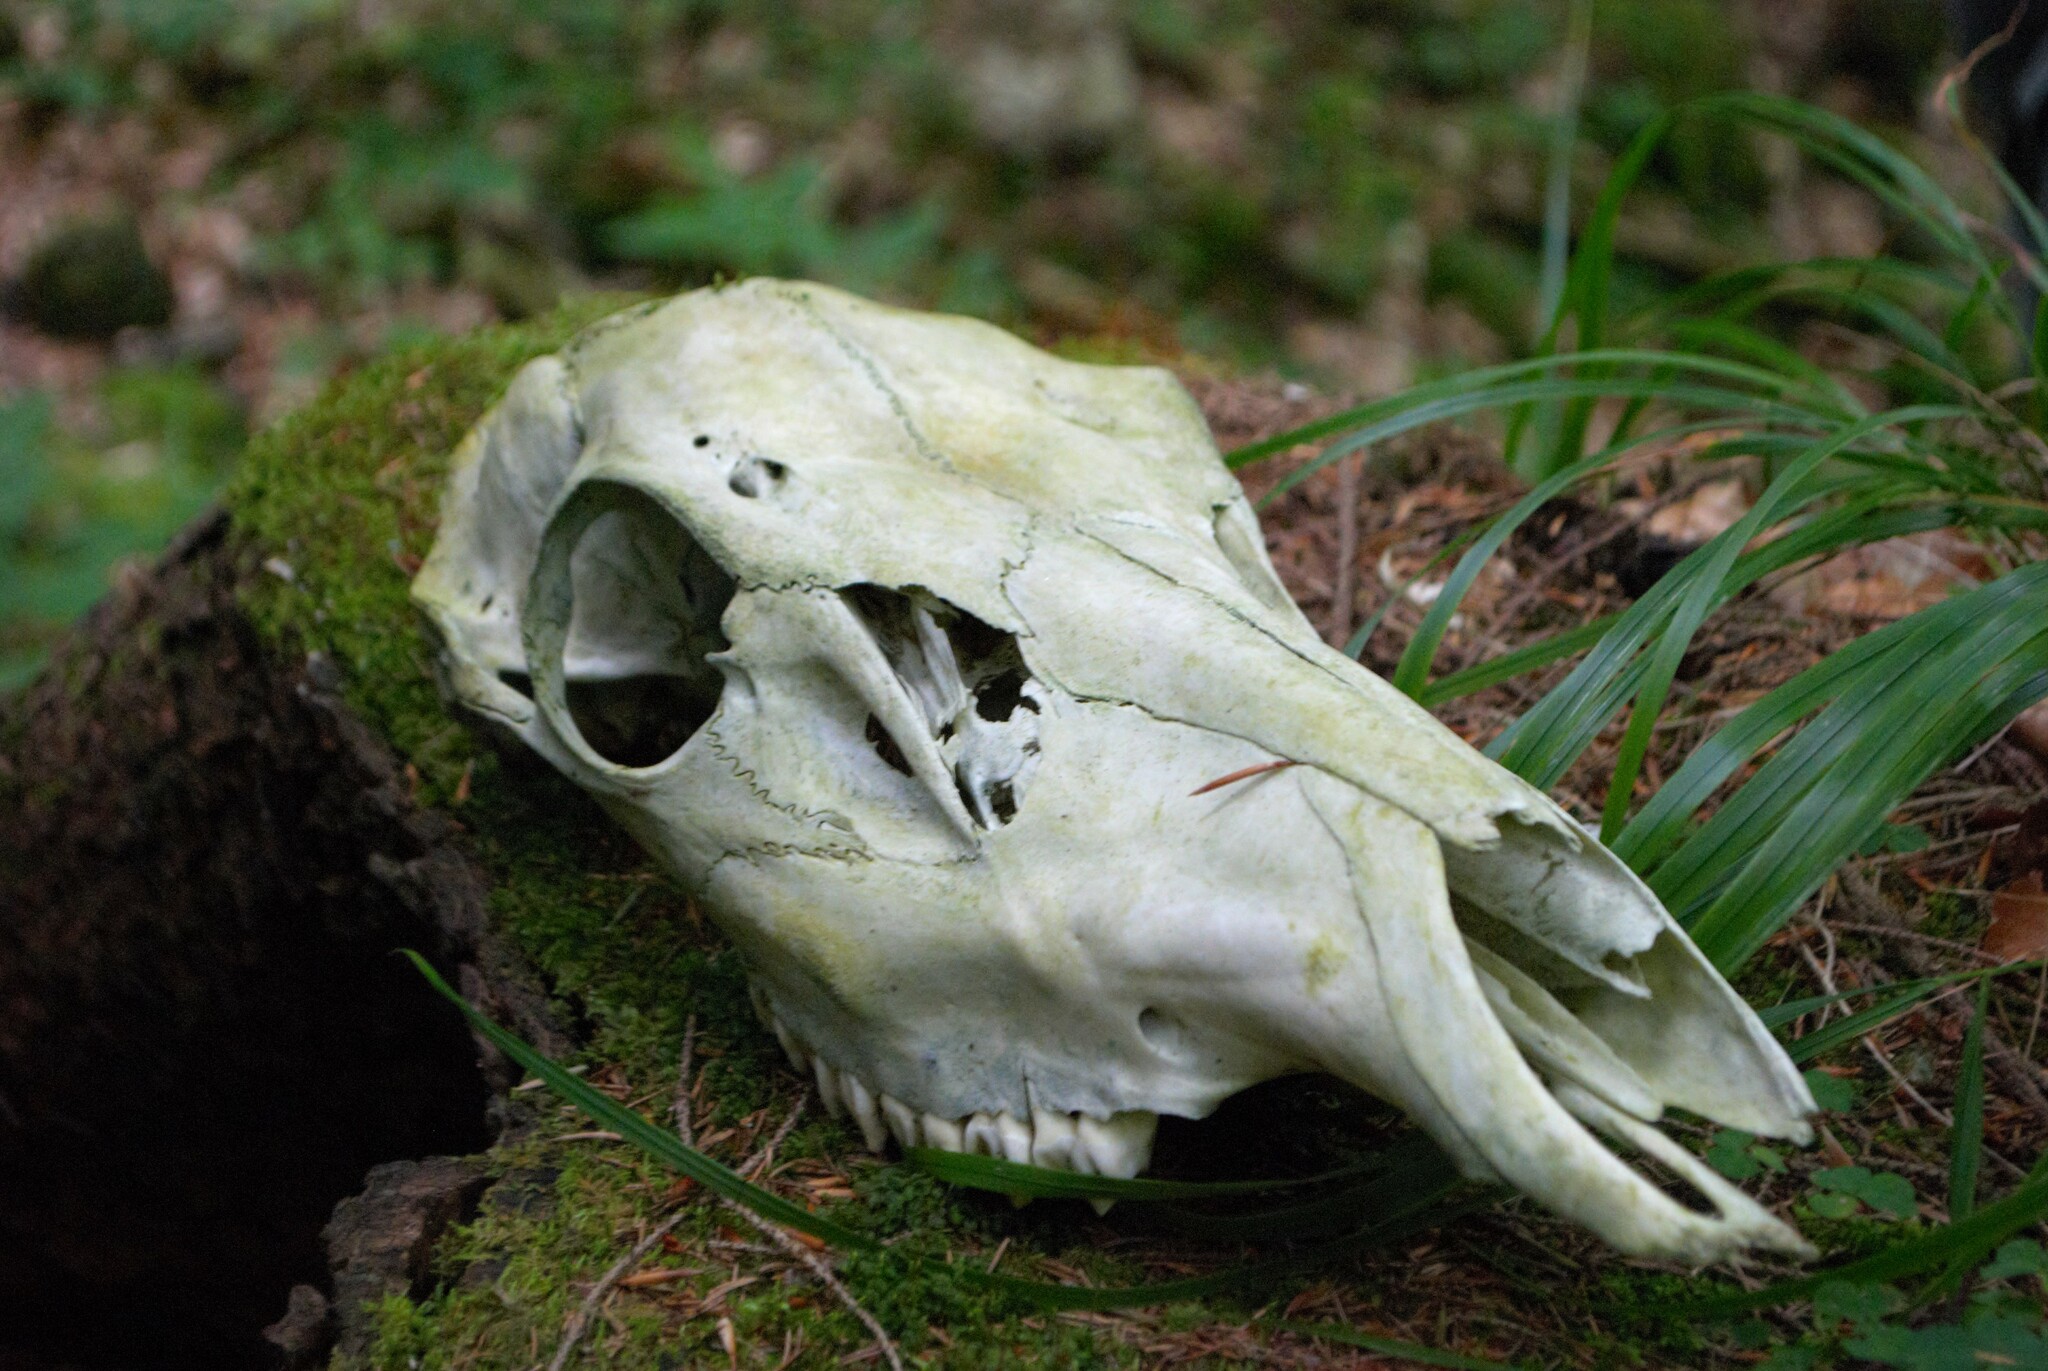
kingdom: Animalia
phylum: Chordata
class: Mammalia
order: Artiodactyla
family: Cervidae
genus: Cervus
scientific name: Cervus elaphus
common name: Red deer
